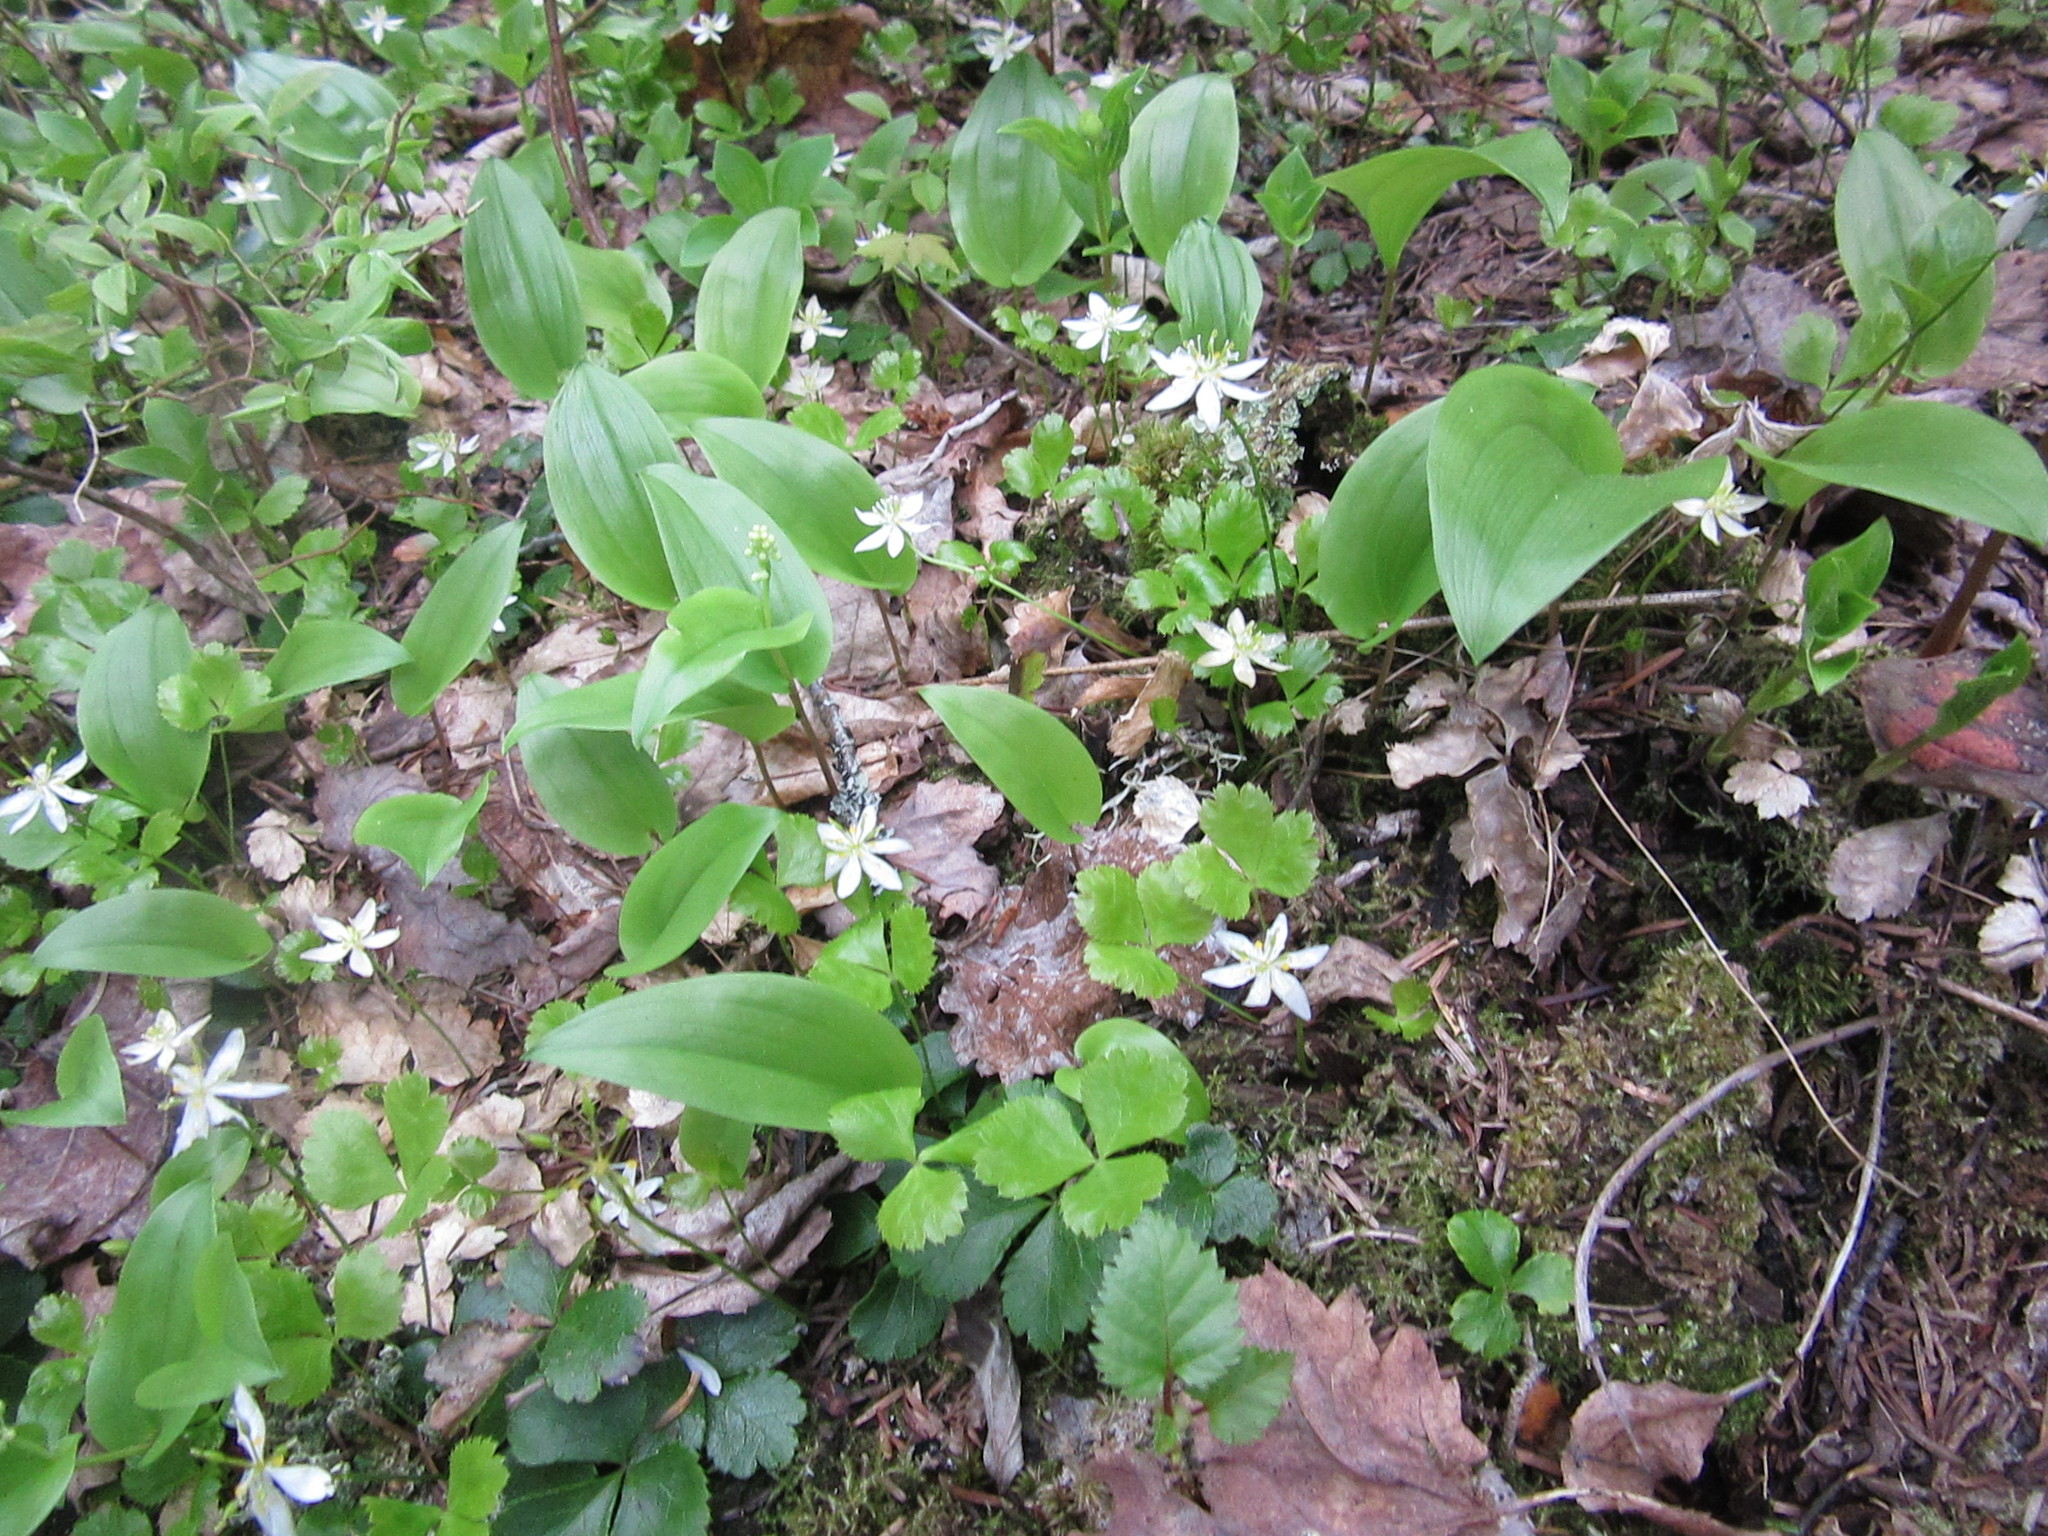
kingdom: Plantae
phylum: Tracheophyta
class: Magnoliopsida
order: Ranunculales
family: Ranunculaceae
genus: Coptis
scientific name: Coptis trifolia
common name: Canker-root
